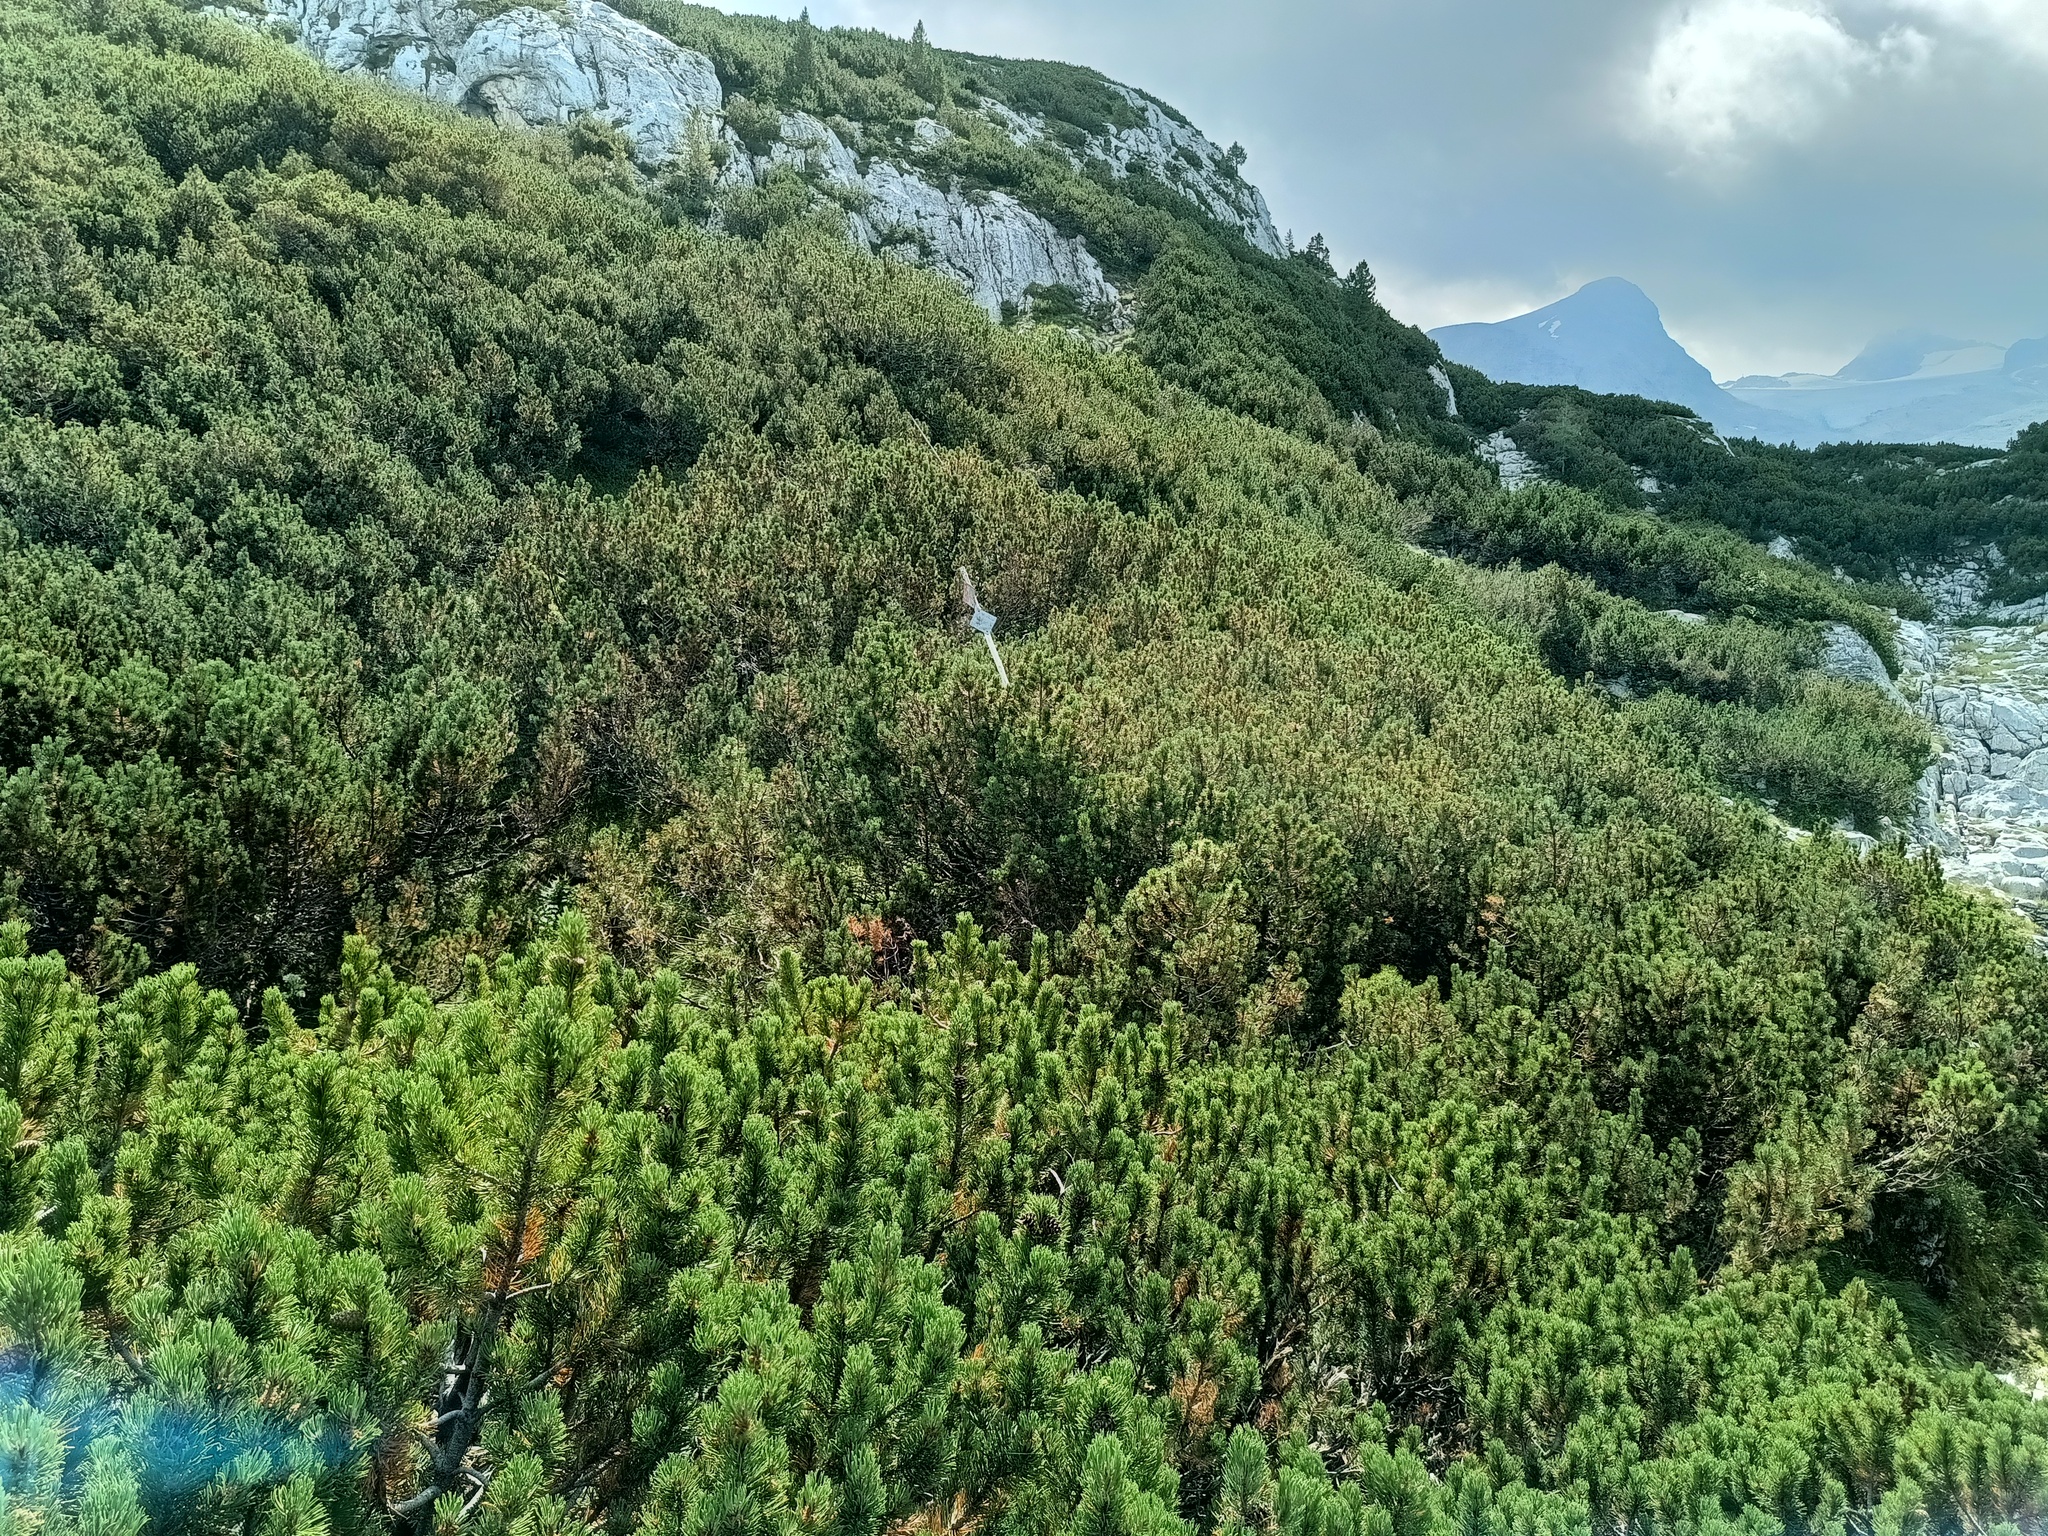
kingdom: Plantae
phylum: Tracheophyta
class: Pinopsida
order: Pinales
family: Pinaceae
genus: Pinus
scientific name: Pinus mugo
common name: Mugo pine
